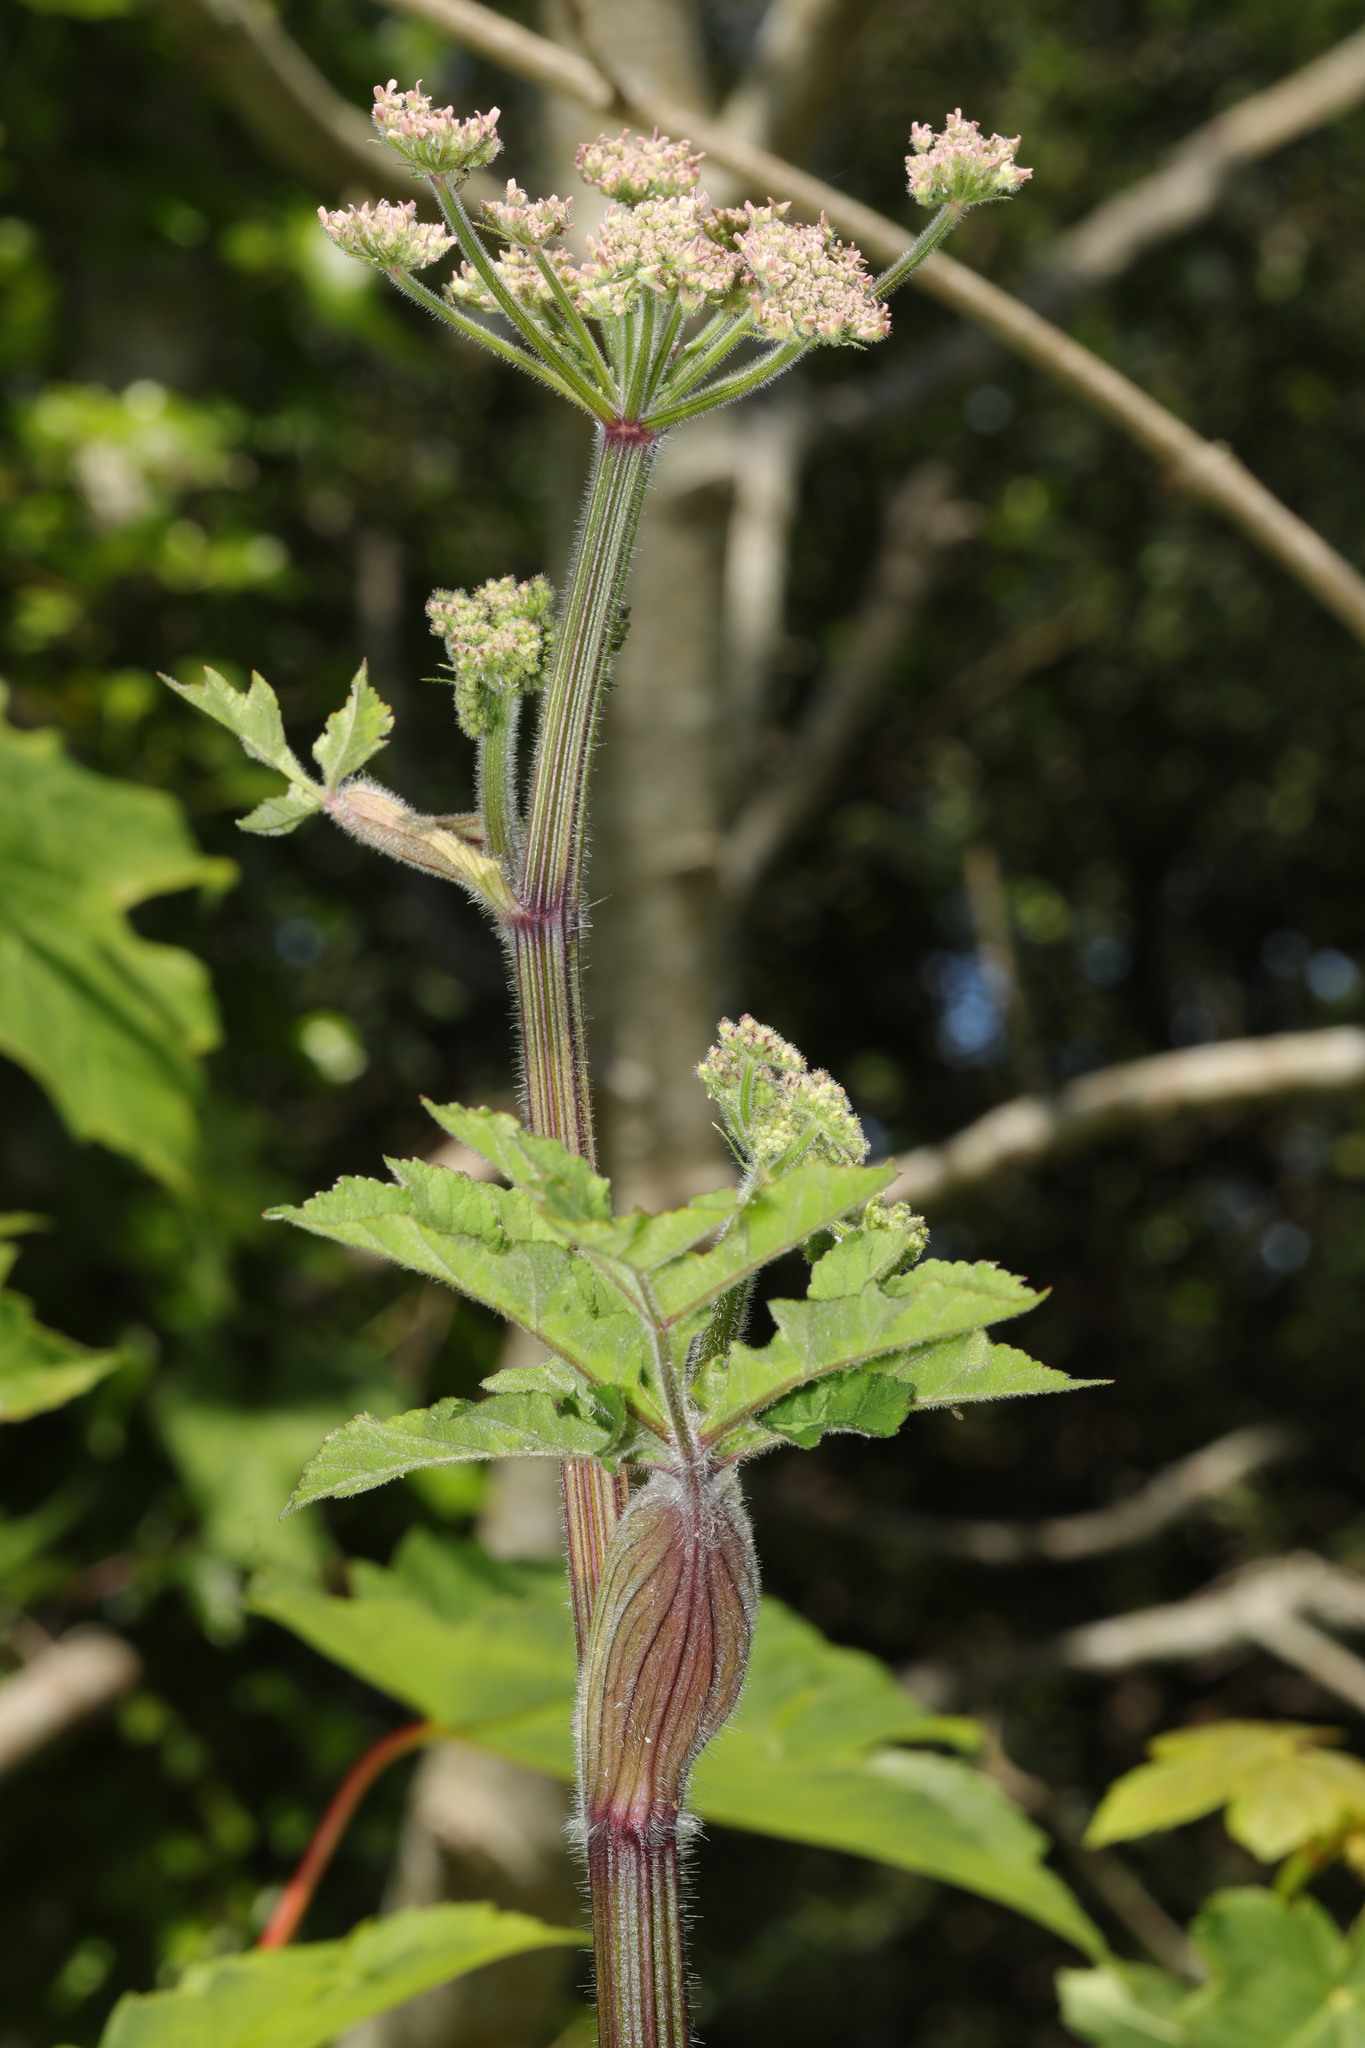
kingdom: Plantae
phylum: Tracheophyta
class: Magnoliopsida
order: Apiales
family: Apiaceae
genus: Heracleum
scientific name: Heracleum sphondylium
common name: Hogweed
